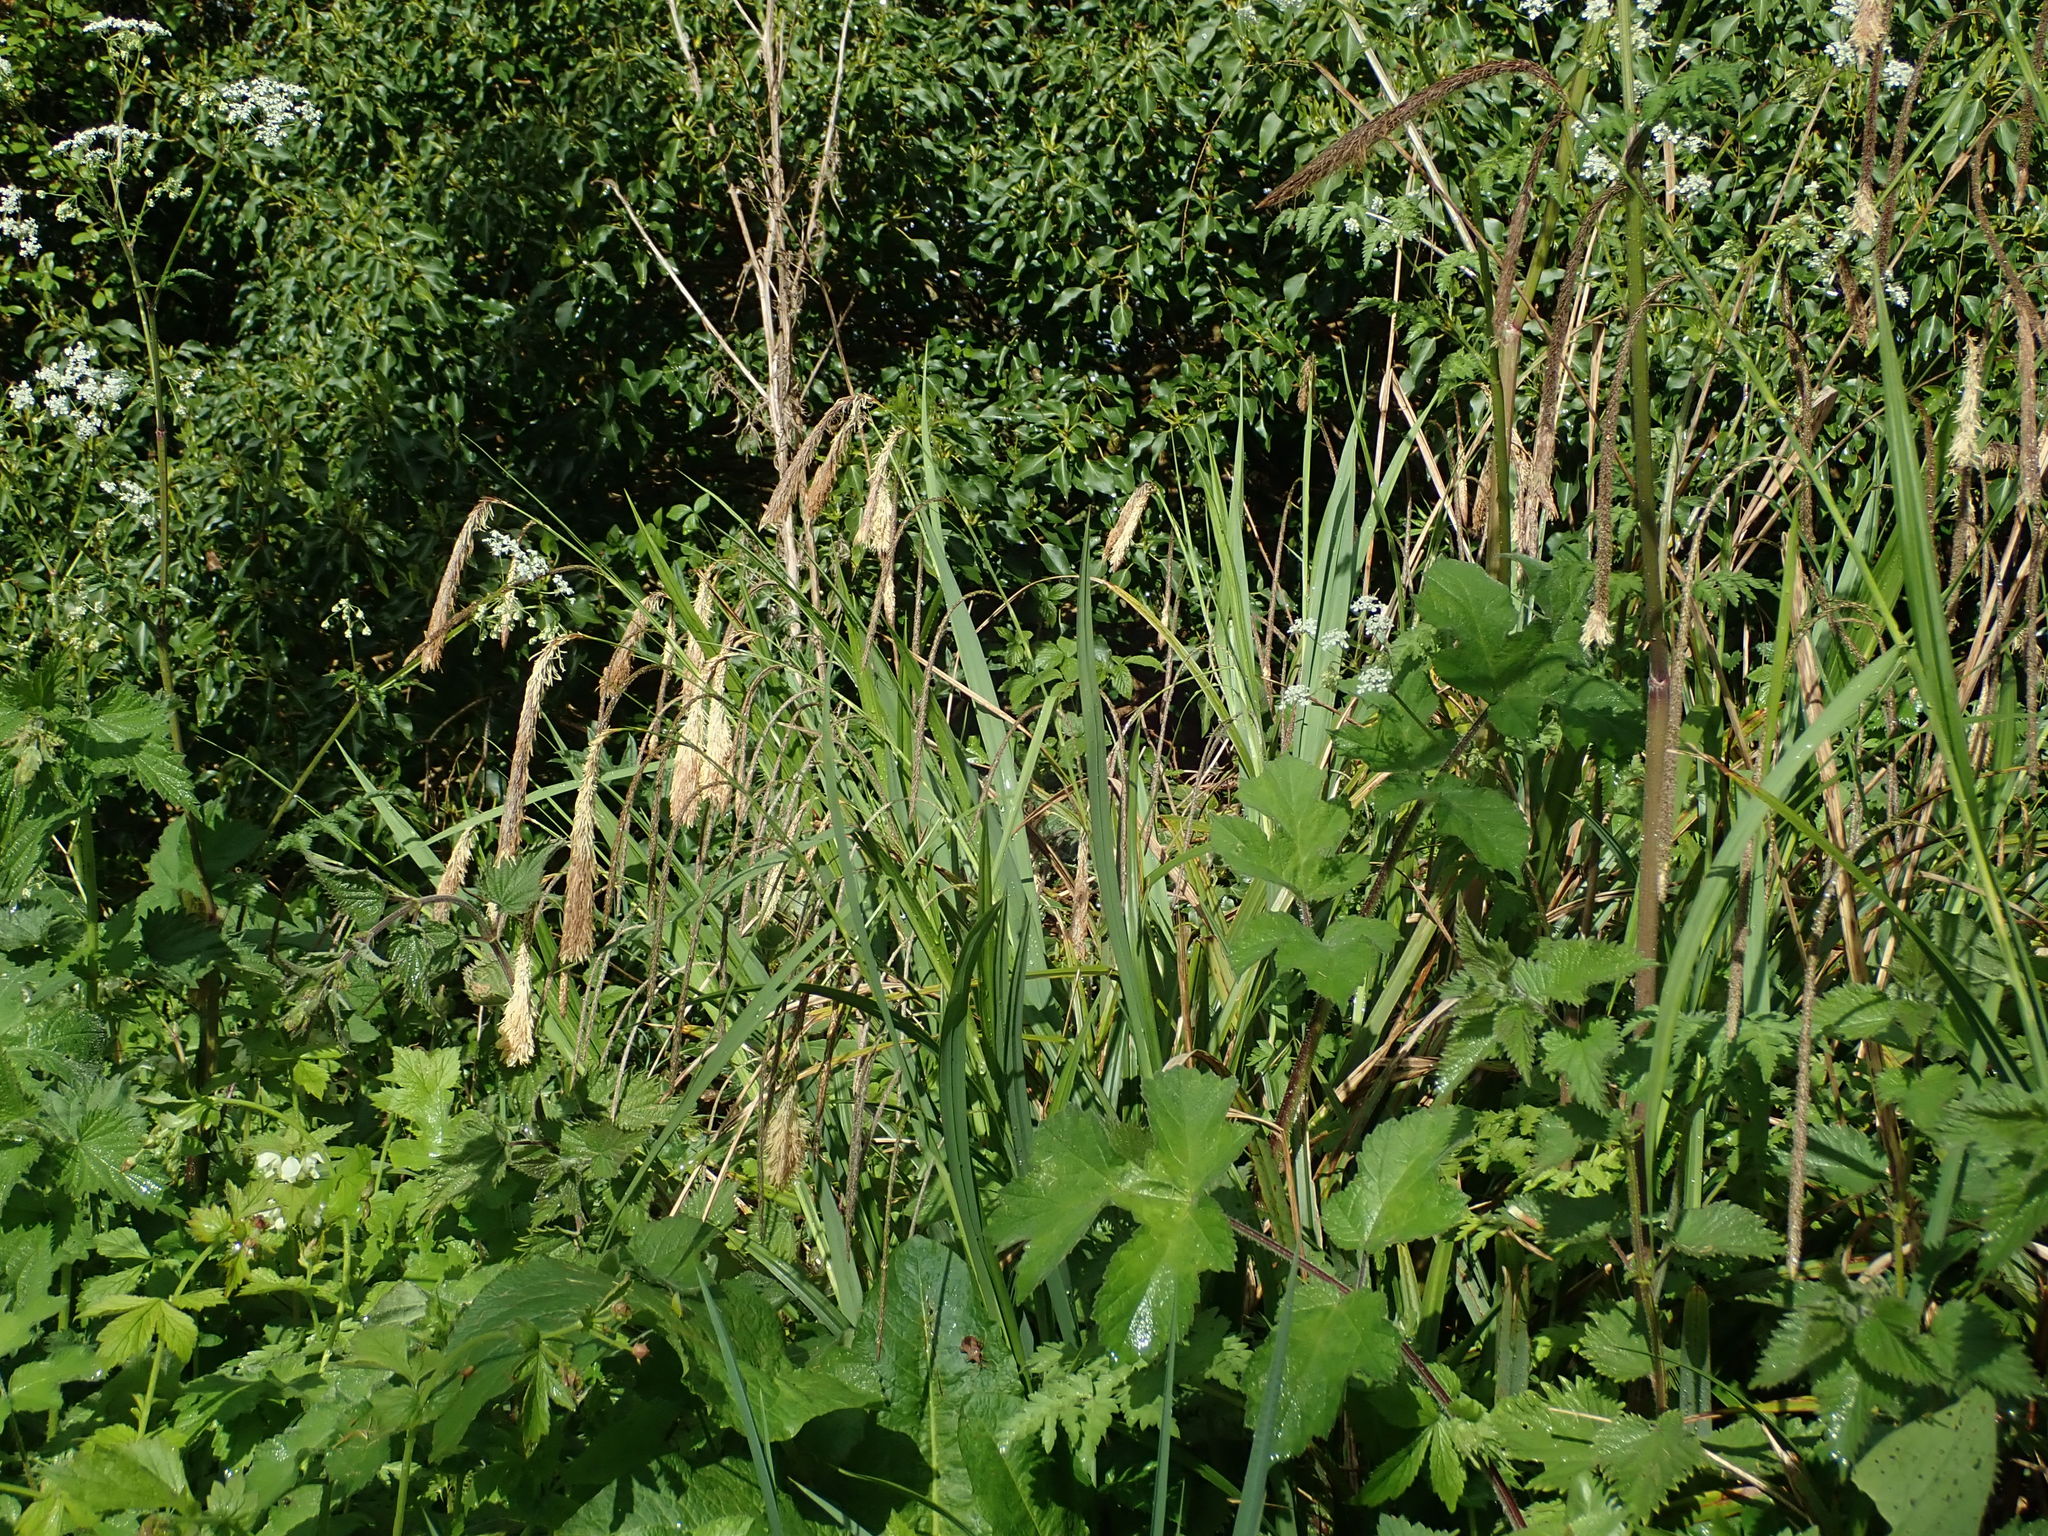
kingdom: Plantae
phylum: Tracheophyta
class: Liliopsida
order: Poales
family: Cyperaceae
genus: Carex
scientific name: Carex pendula
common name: Pendulous sedge
